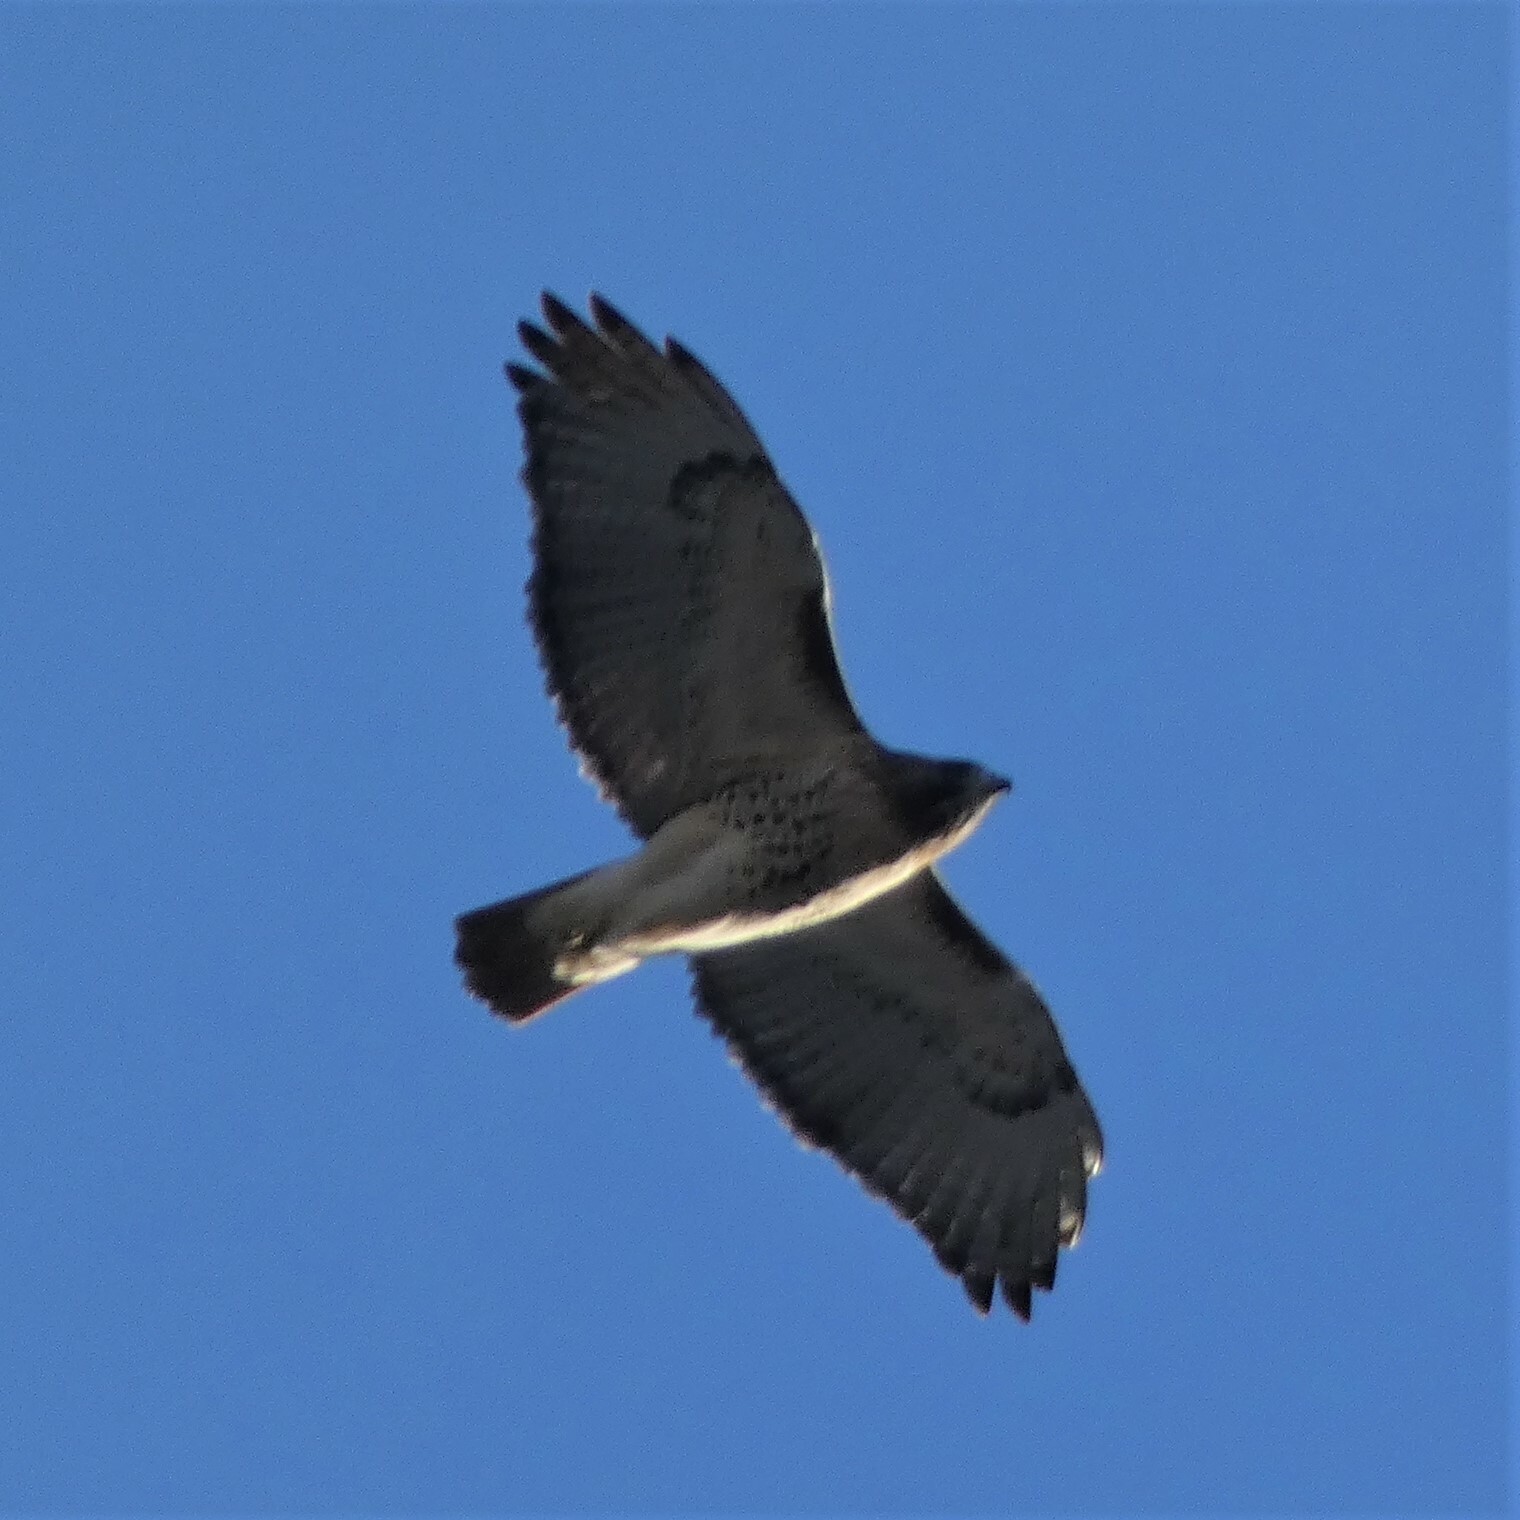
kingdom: Animalia
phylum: Chordata
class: Aves
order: Accipitriformes
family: Accipitridae
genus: Buteo
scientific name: Buteo jamaicensis
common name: Red-tailed hawk
